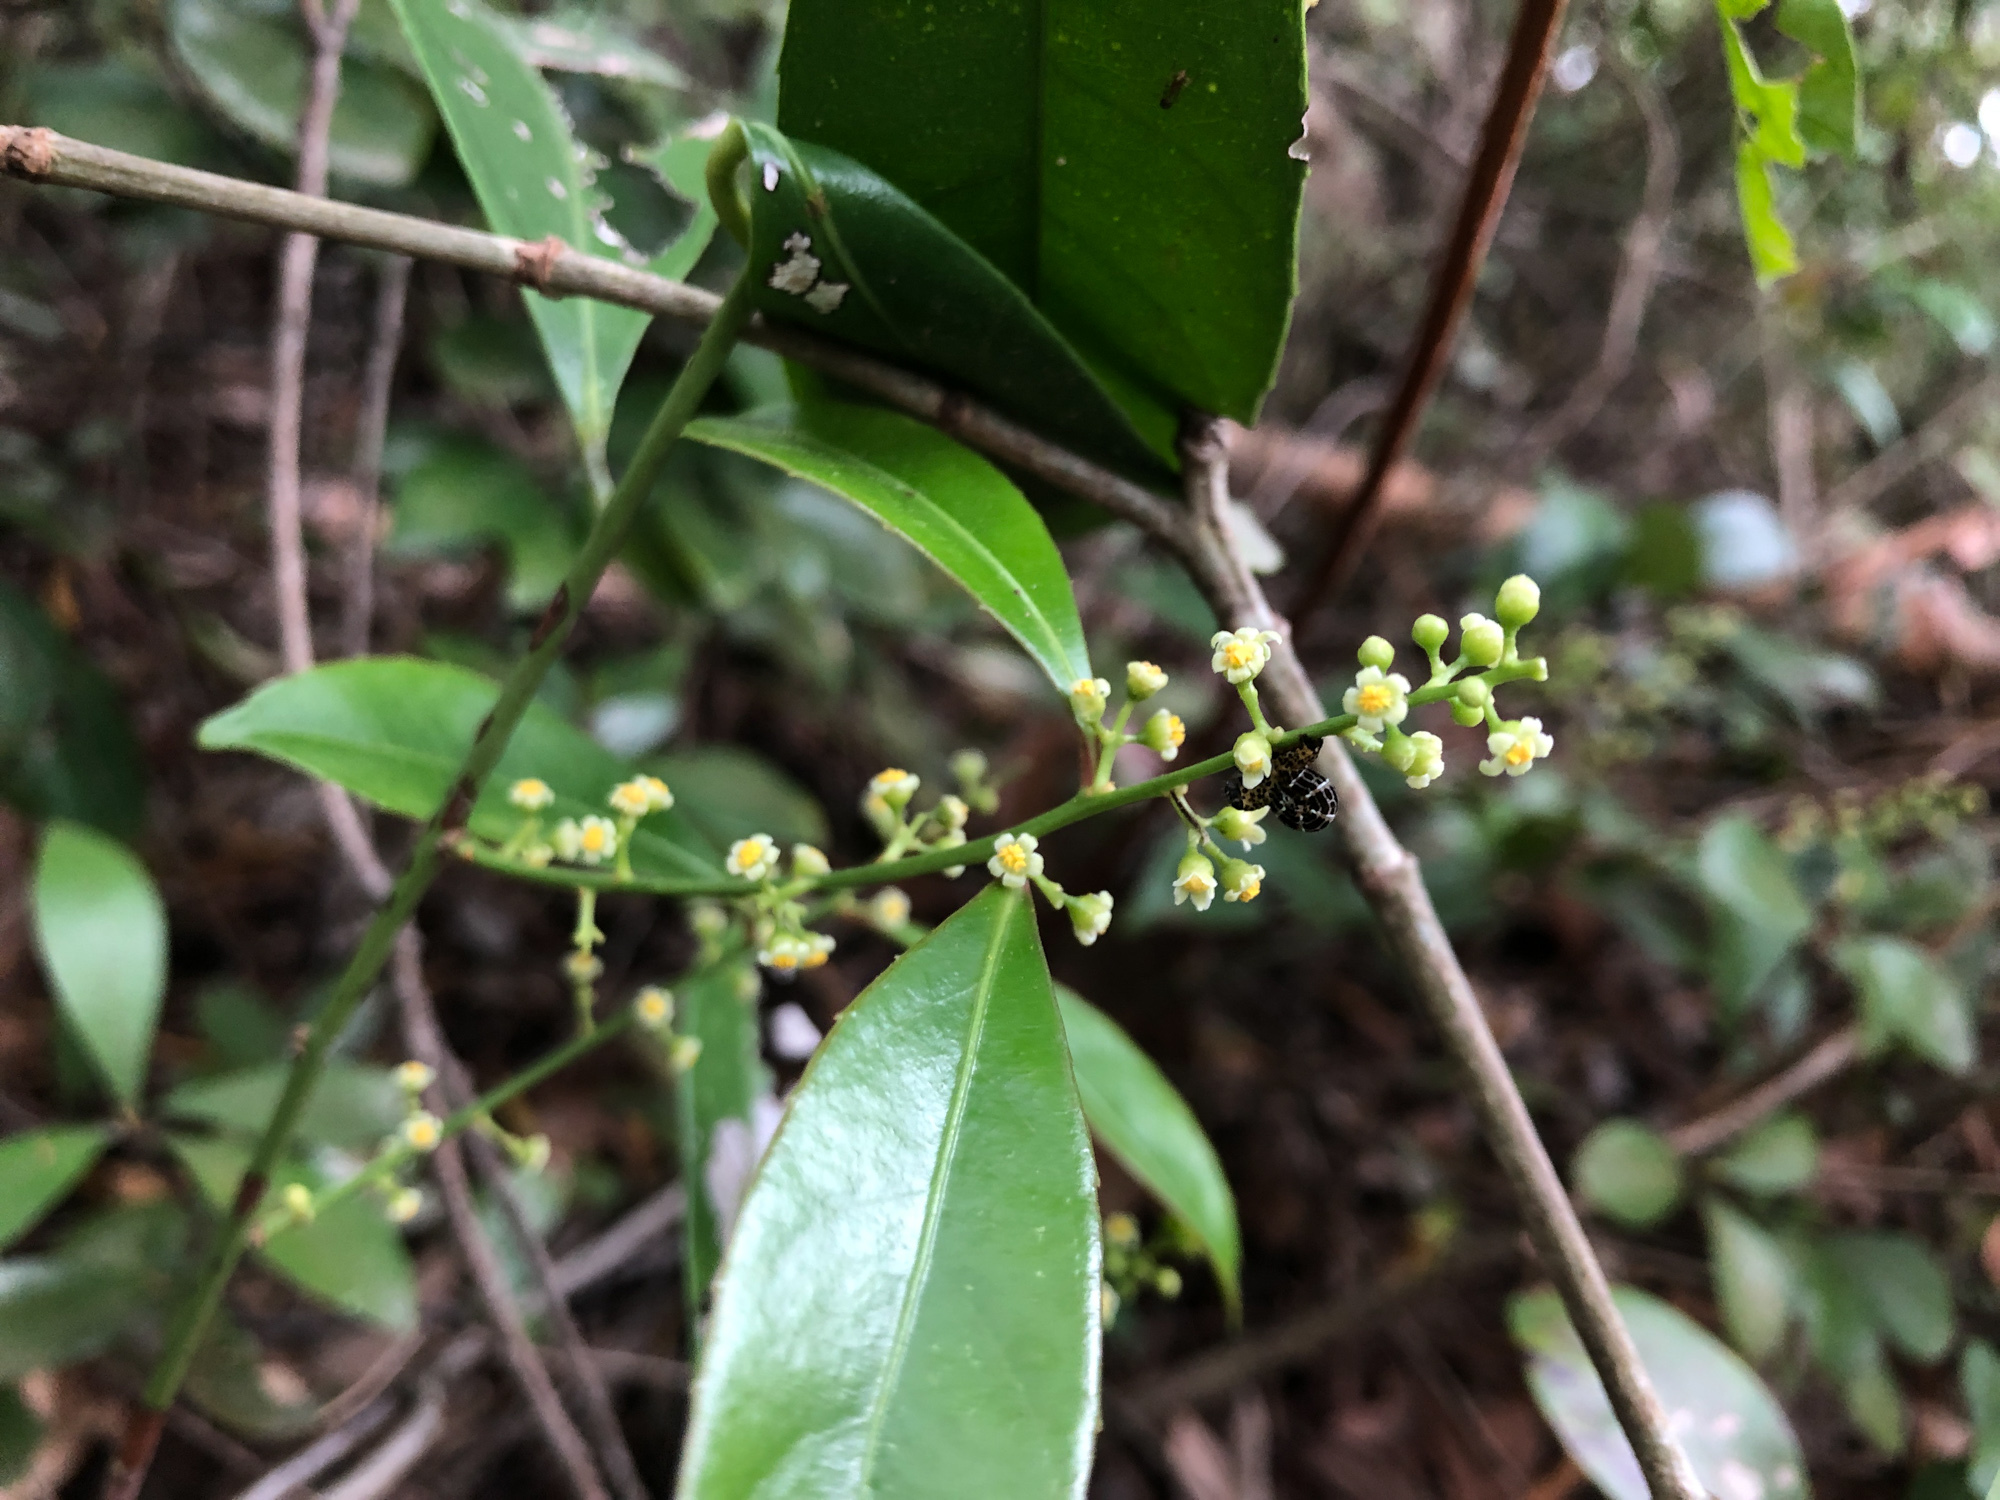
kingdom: Plantae
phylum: Tracheophyta
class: Magnoliopsida
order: Celastrales
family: Celastraceae
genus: Celastrus
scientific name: Celastrus hindsii
